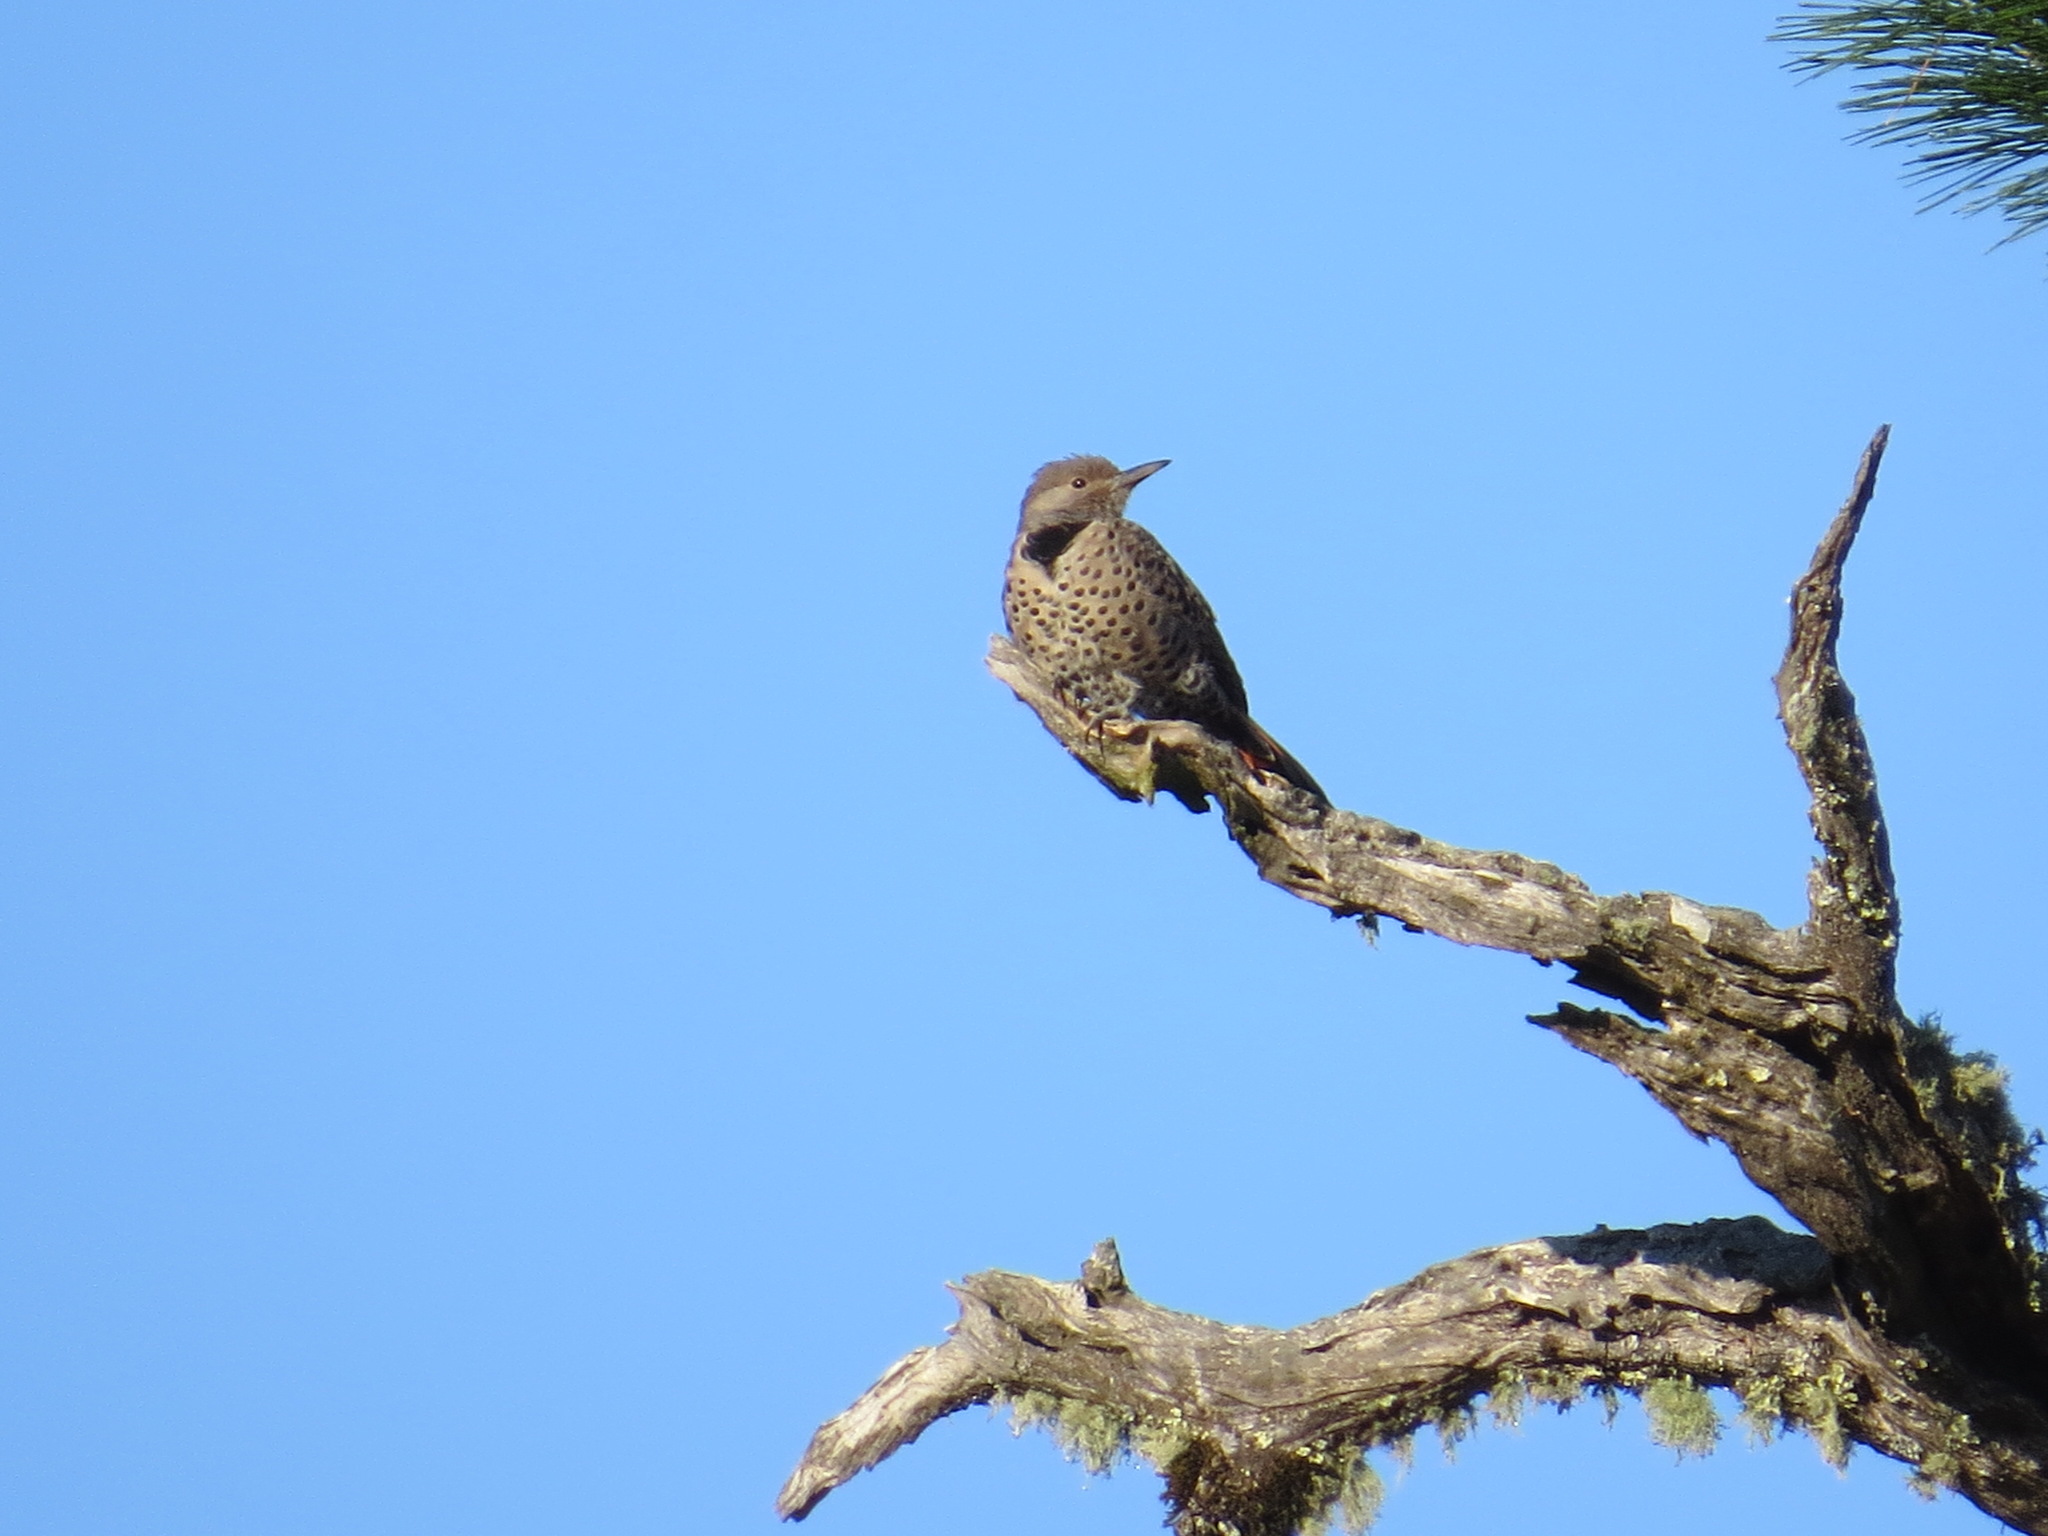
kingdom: Animalia
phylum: Chordata
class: Aves
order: Piciformes
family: Picidae
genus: Colaptes
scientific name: Colaptes auratus
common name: Northern flicker
